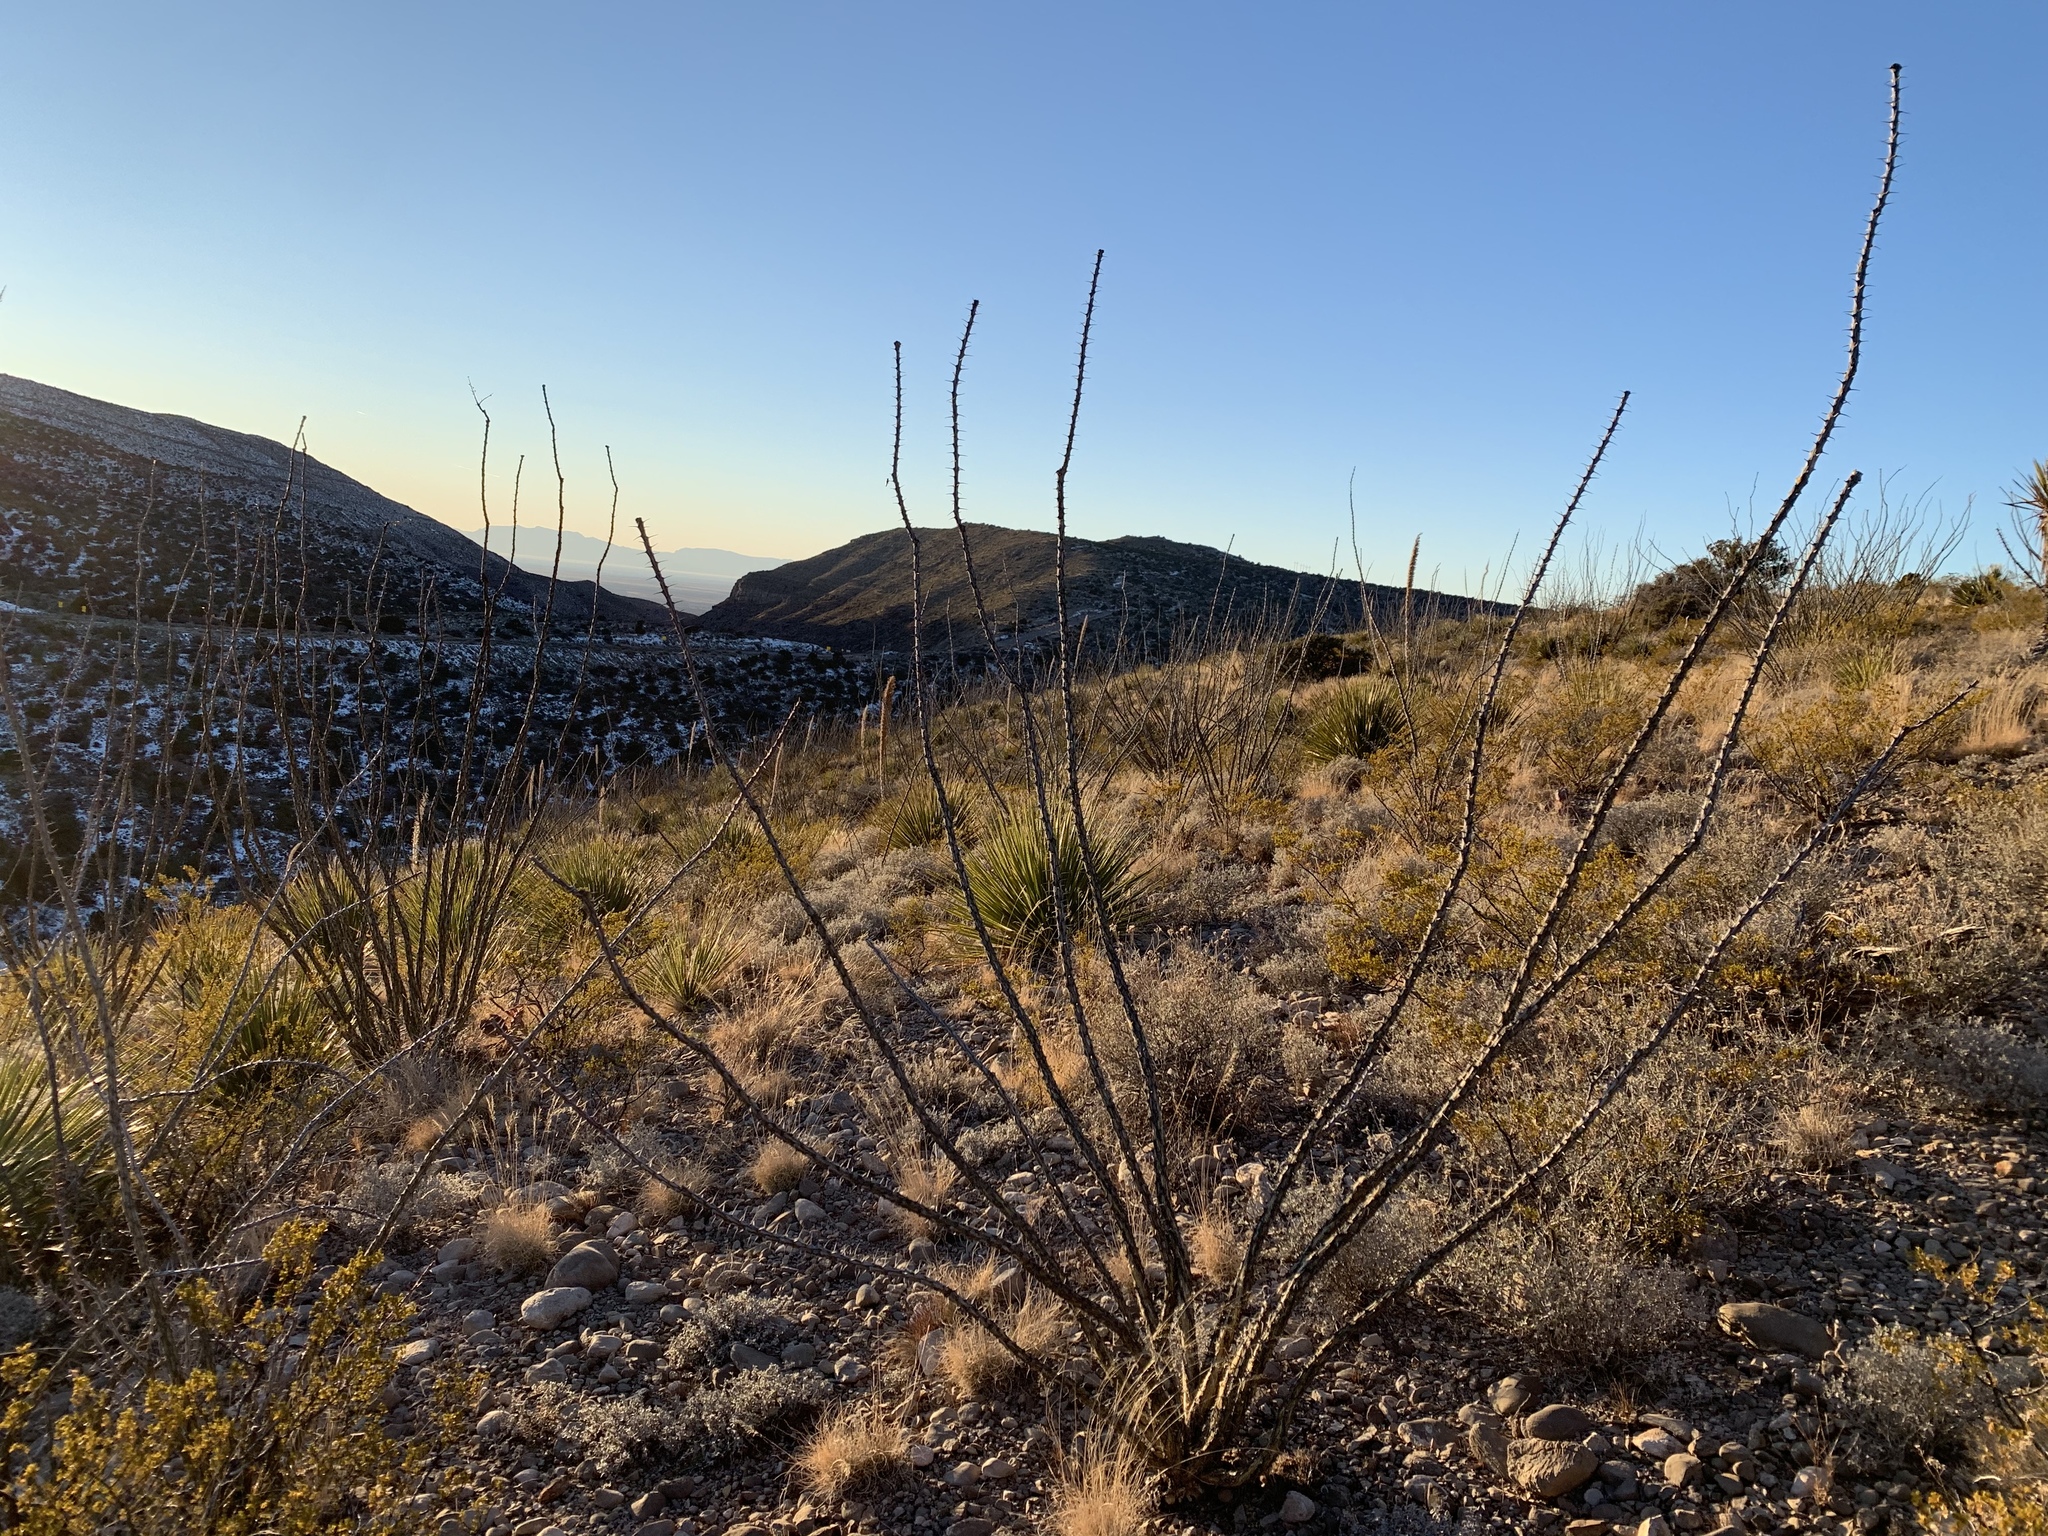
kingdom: Plantae
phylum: Tracheophyta
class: Magnoliopsida
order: Ericales
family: Fouquieriaceae
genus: Fouquieria
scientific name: Fouquieria splendens
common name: Vine-cactus
